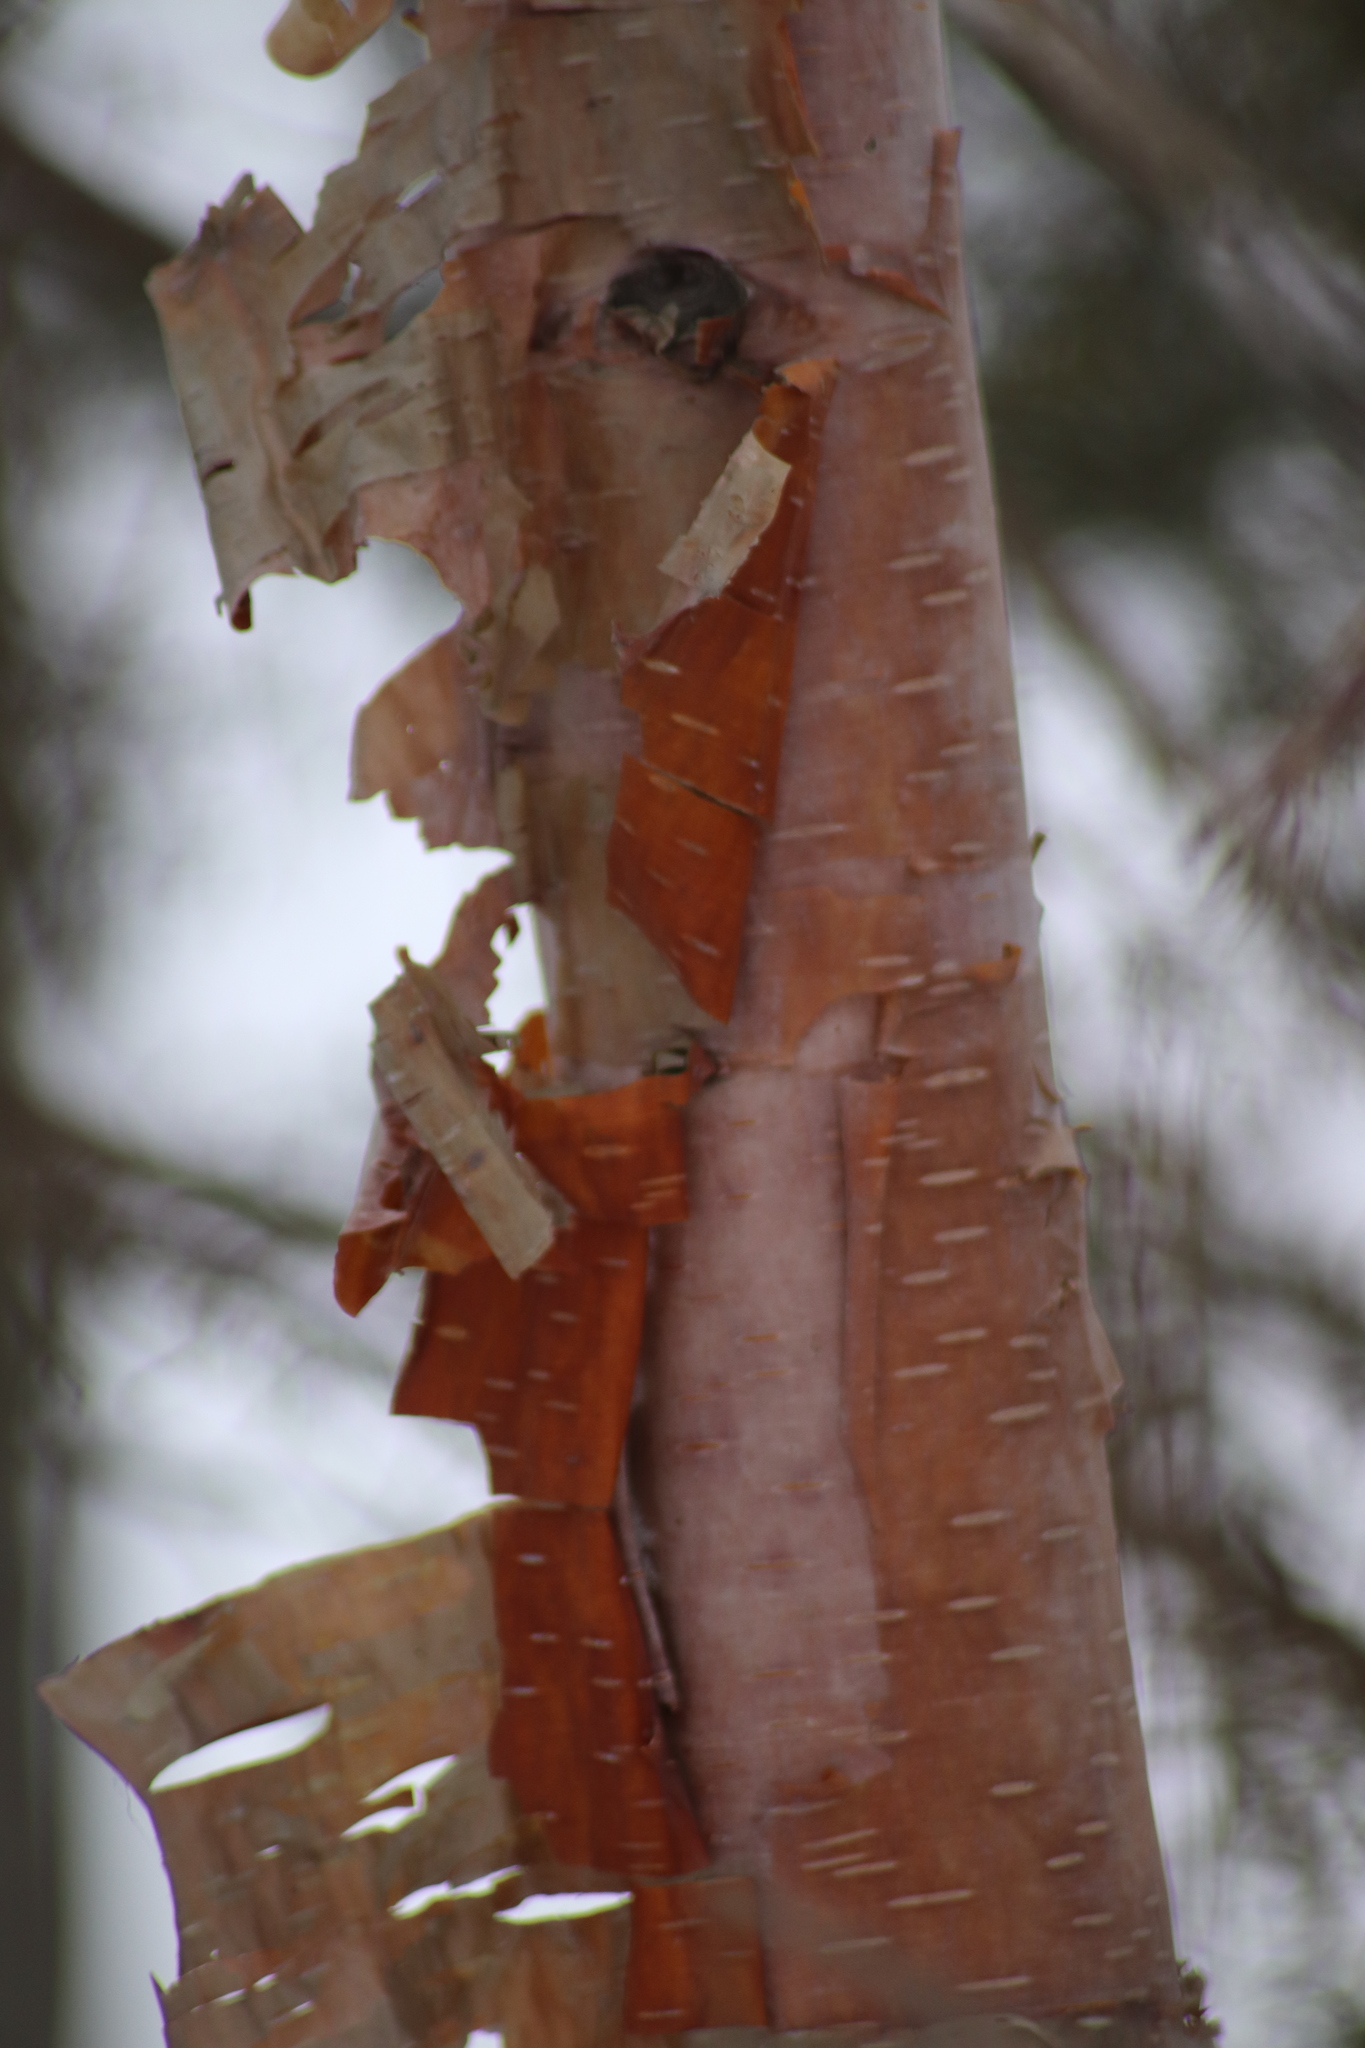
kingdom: Plantae
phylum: Tracheophyta
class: Magnoliopsida
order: Fagales
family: Betulaceae
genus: Betula
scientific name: Betula papyrifera
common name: Paper birch
